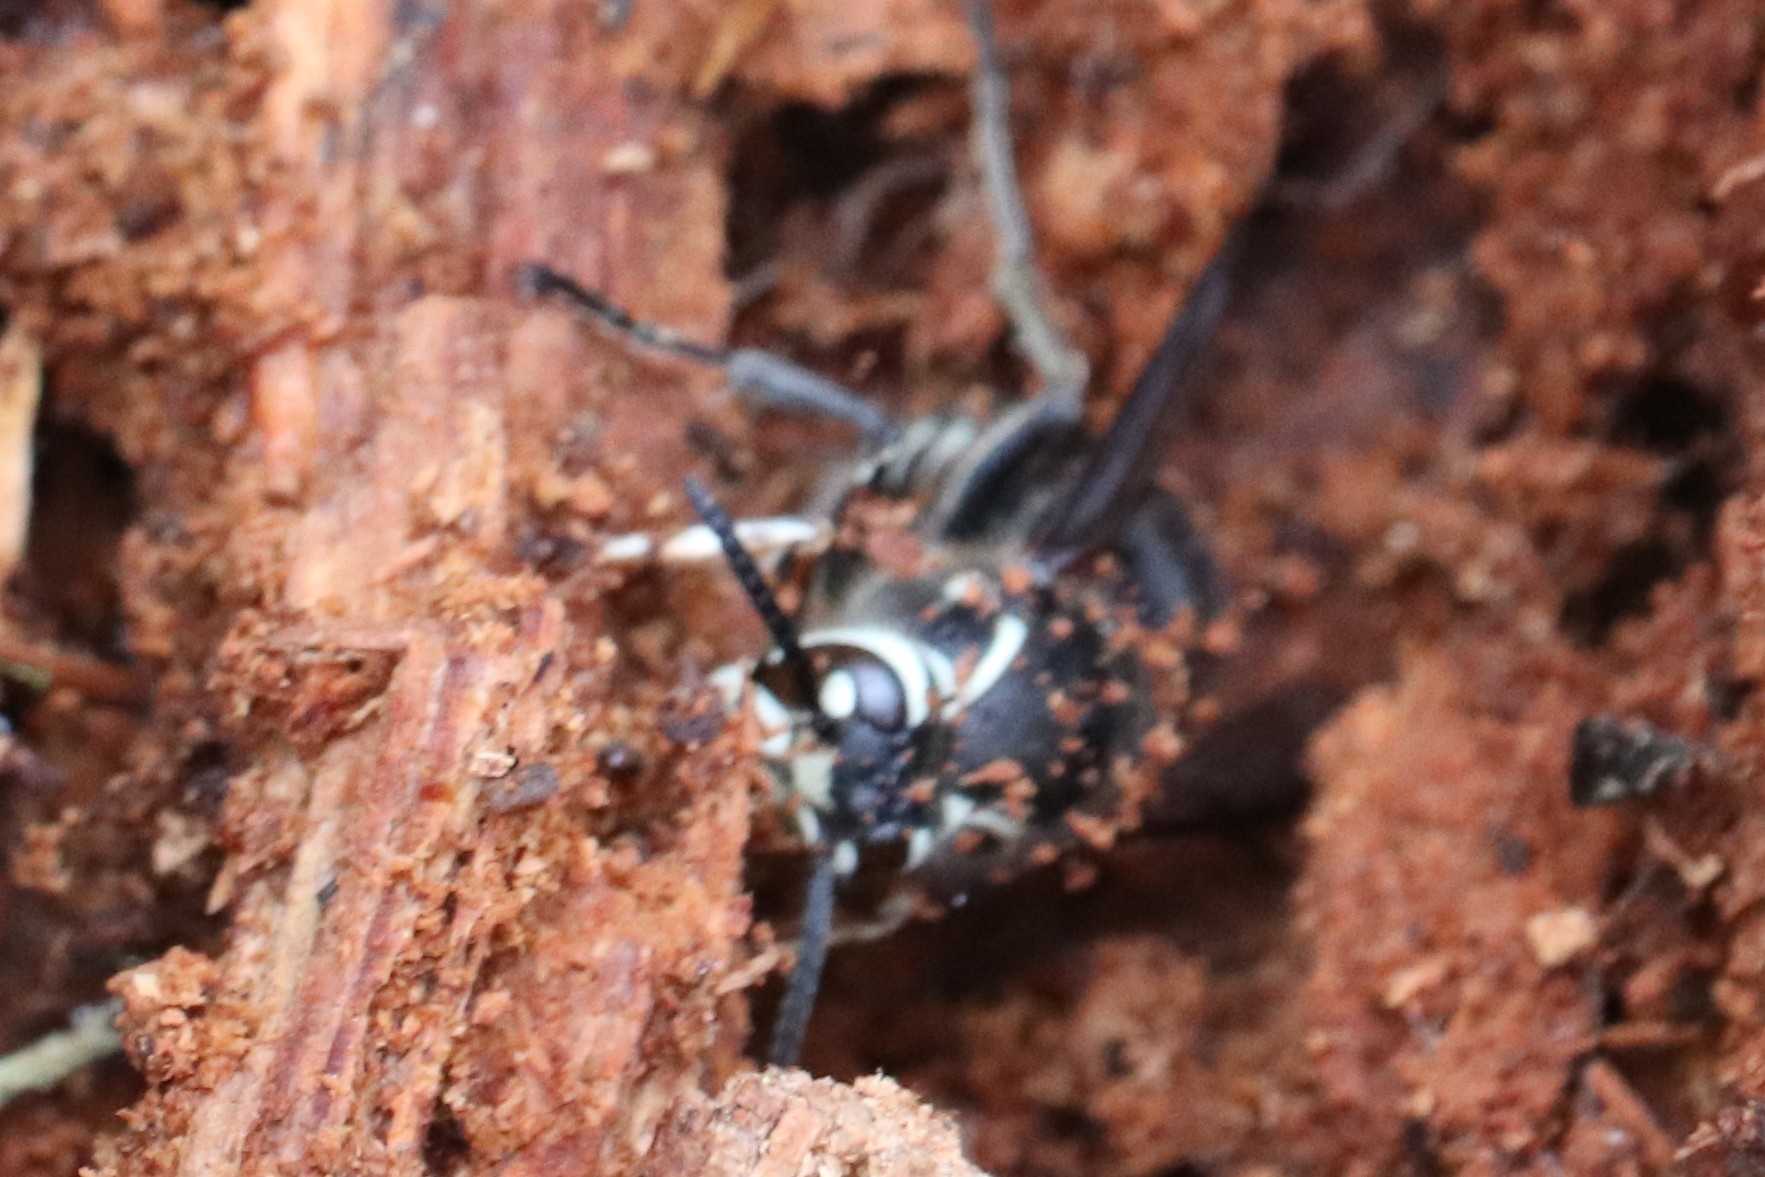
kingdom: Animalia
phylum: Arthropoda
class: Insecta
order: Hymenoptera
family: Vespidae
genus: Dolichovespula
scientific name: Dolichovespula maculata
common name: Bald-faced hornet
